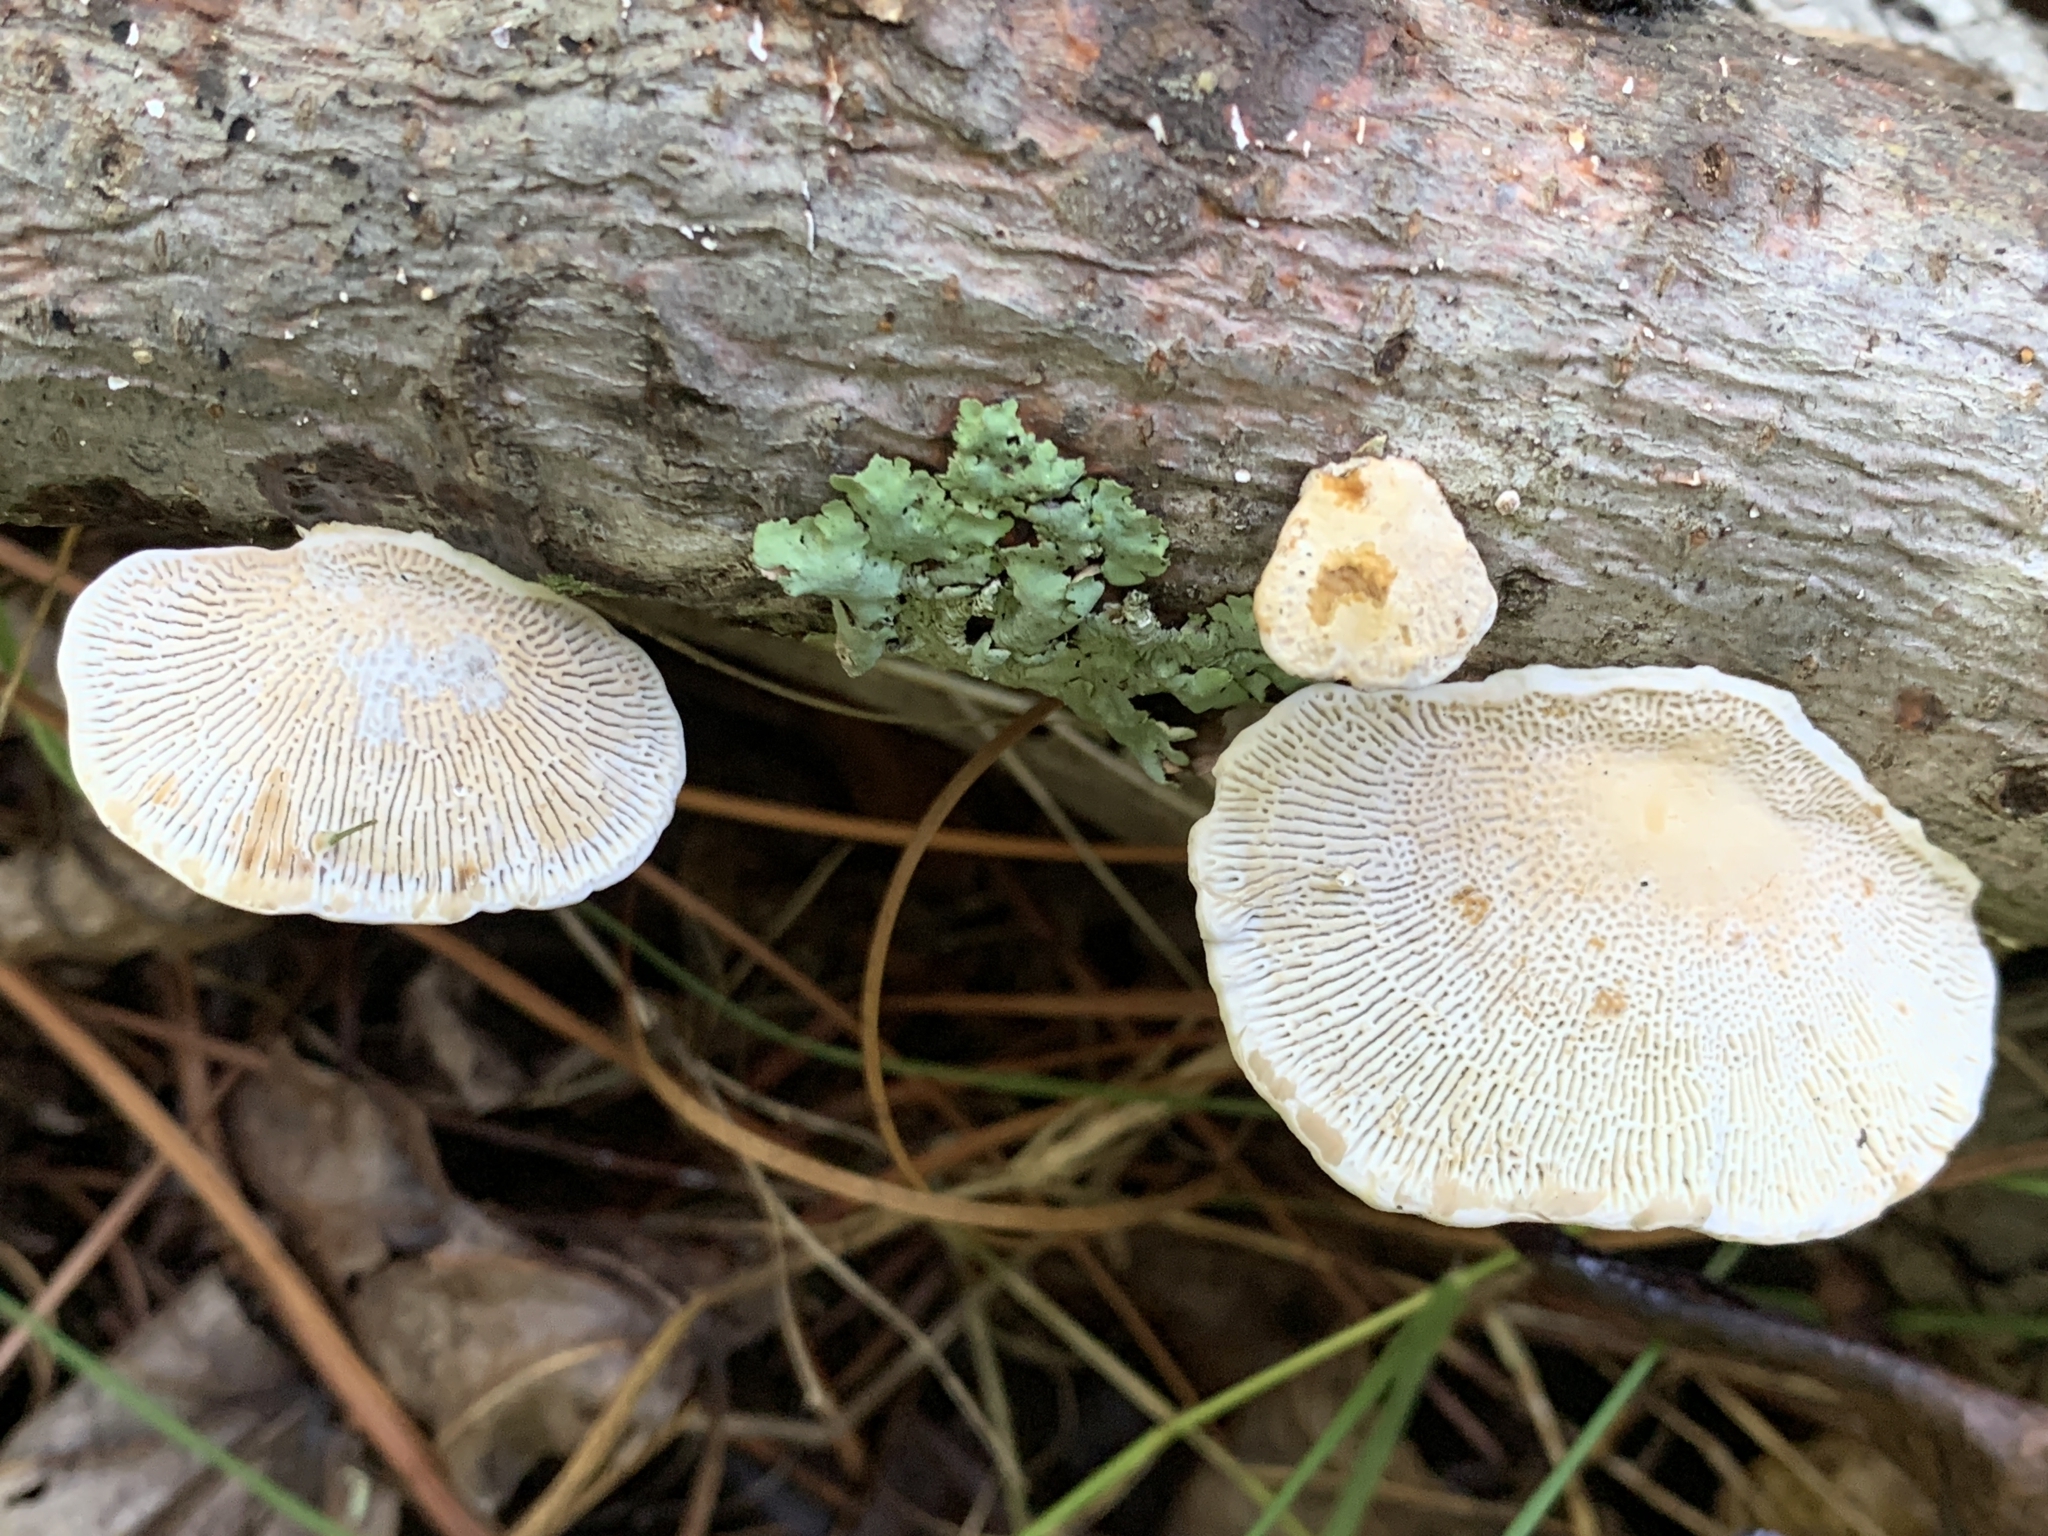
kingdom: Fungi
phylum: Basidiomycota
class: Agaricomycetes
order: Polyporales
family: Polyporaceae
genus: Daedaleopsis
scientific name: Daedaleopsis confragosa
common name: Blushing bracket
